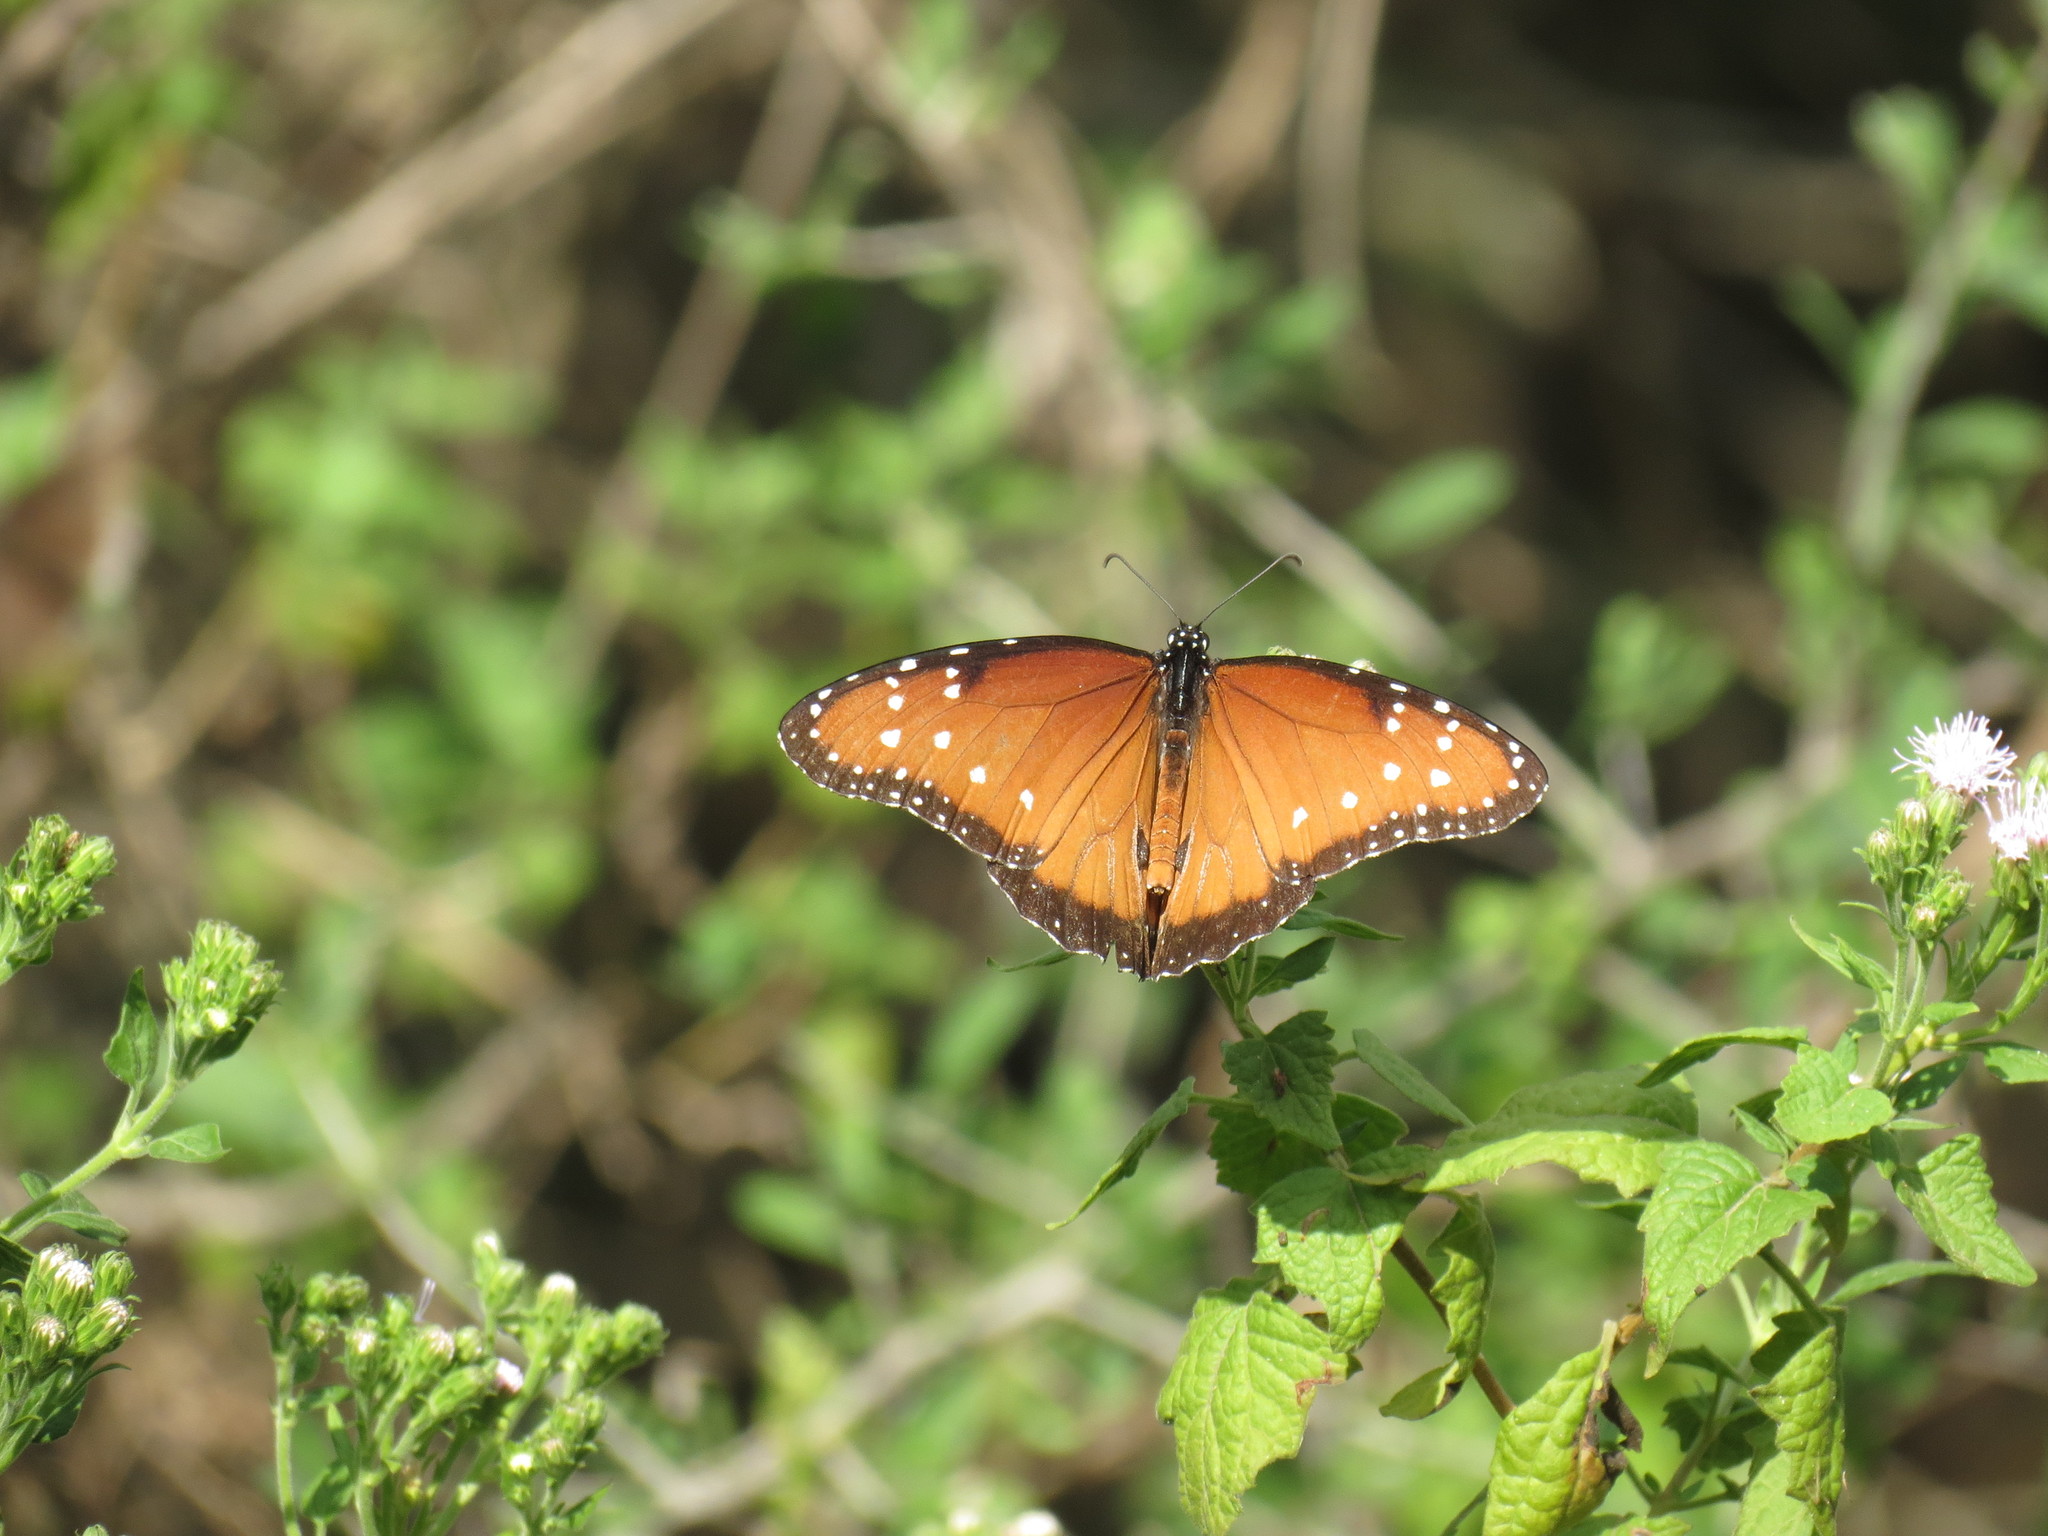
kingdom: Animalia
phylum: Arthropoda
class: Insecta
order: Lepidoptera
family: Nymphalidae
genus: Danaus
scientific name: Danaus gilippus
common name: Queen
